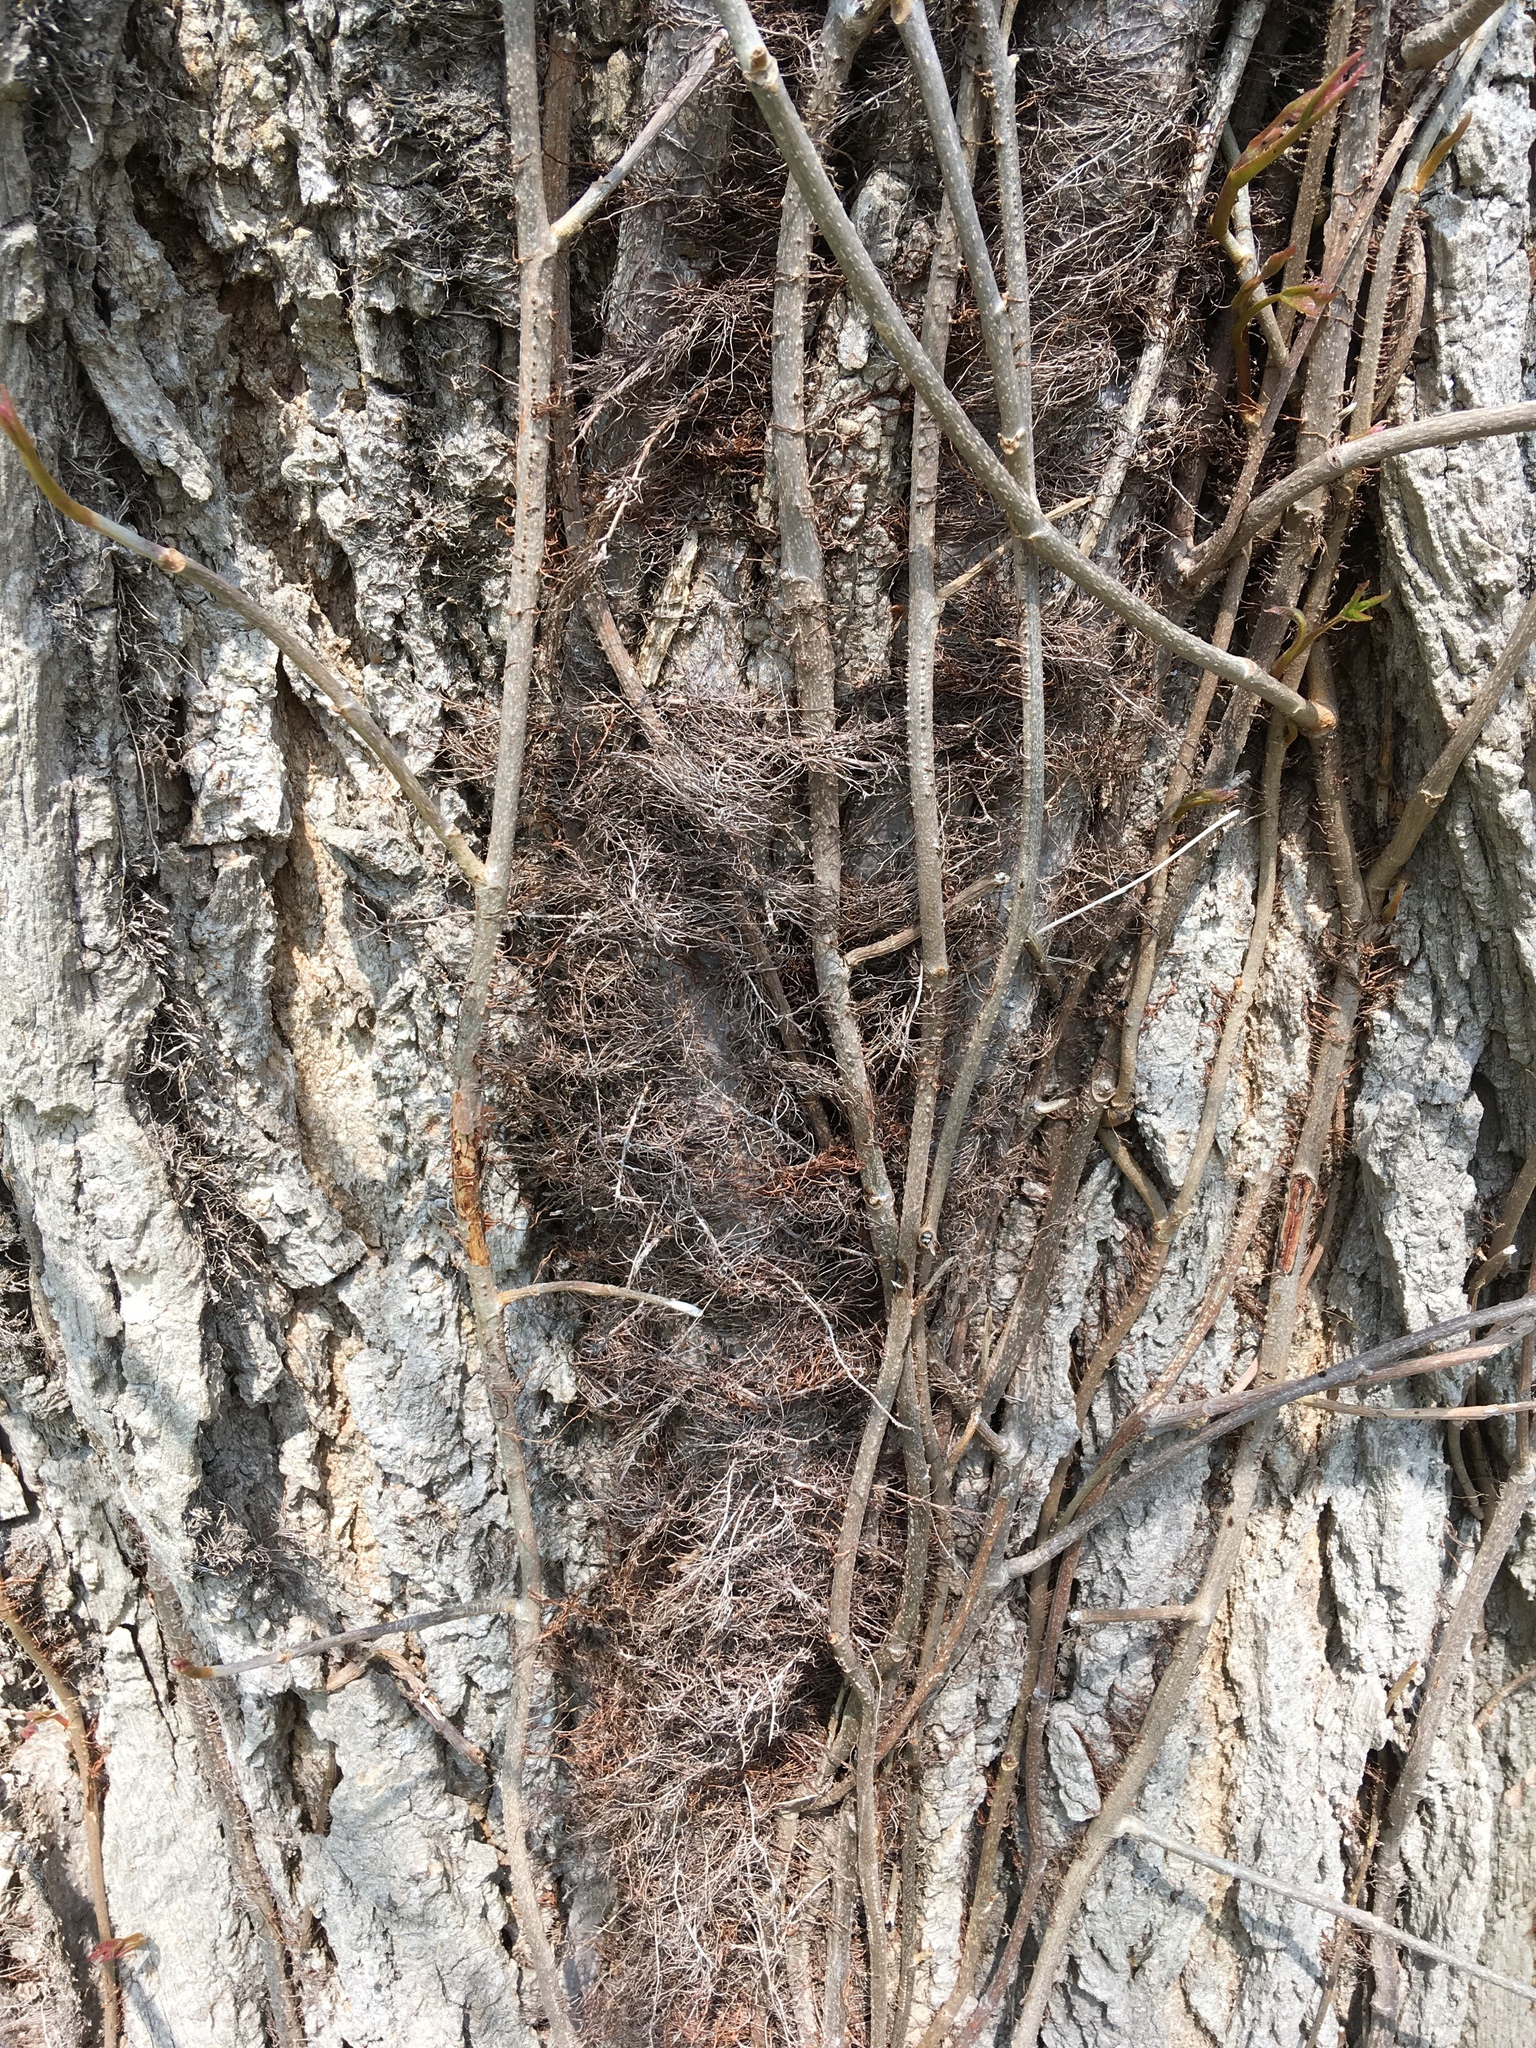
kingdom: Plantae
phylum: Tracheophyta
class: Magnoliopsida
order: Sapindales
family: Anacardiaceae
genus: Toxicodendron
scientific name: Toxicodendron radicans
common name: Poison ivy
